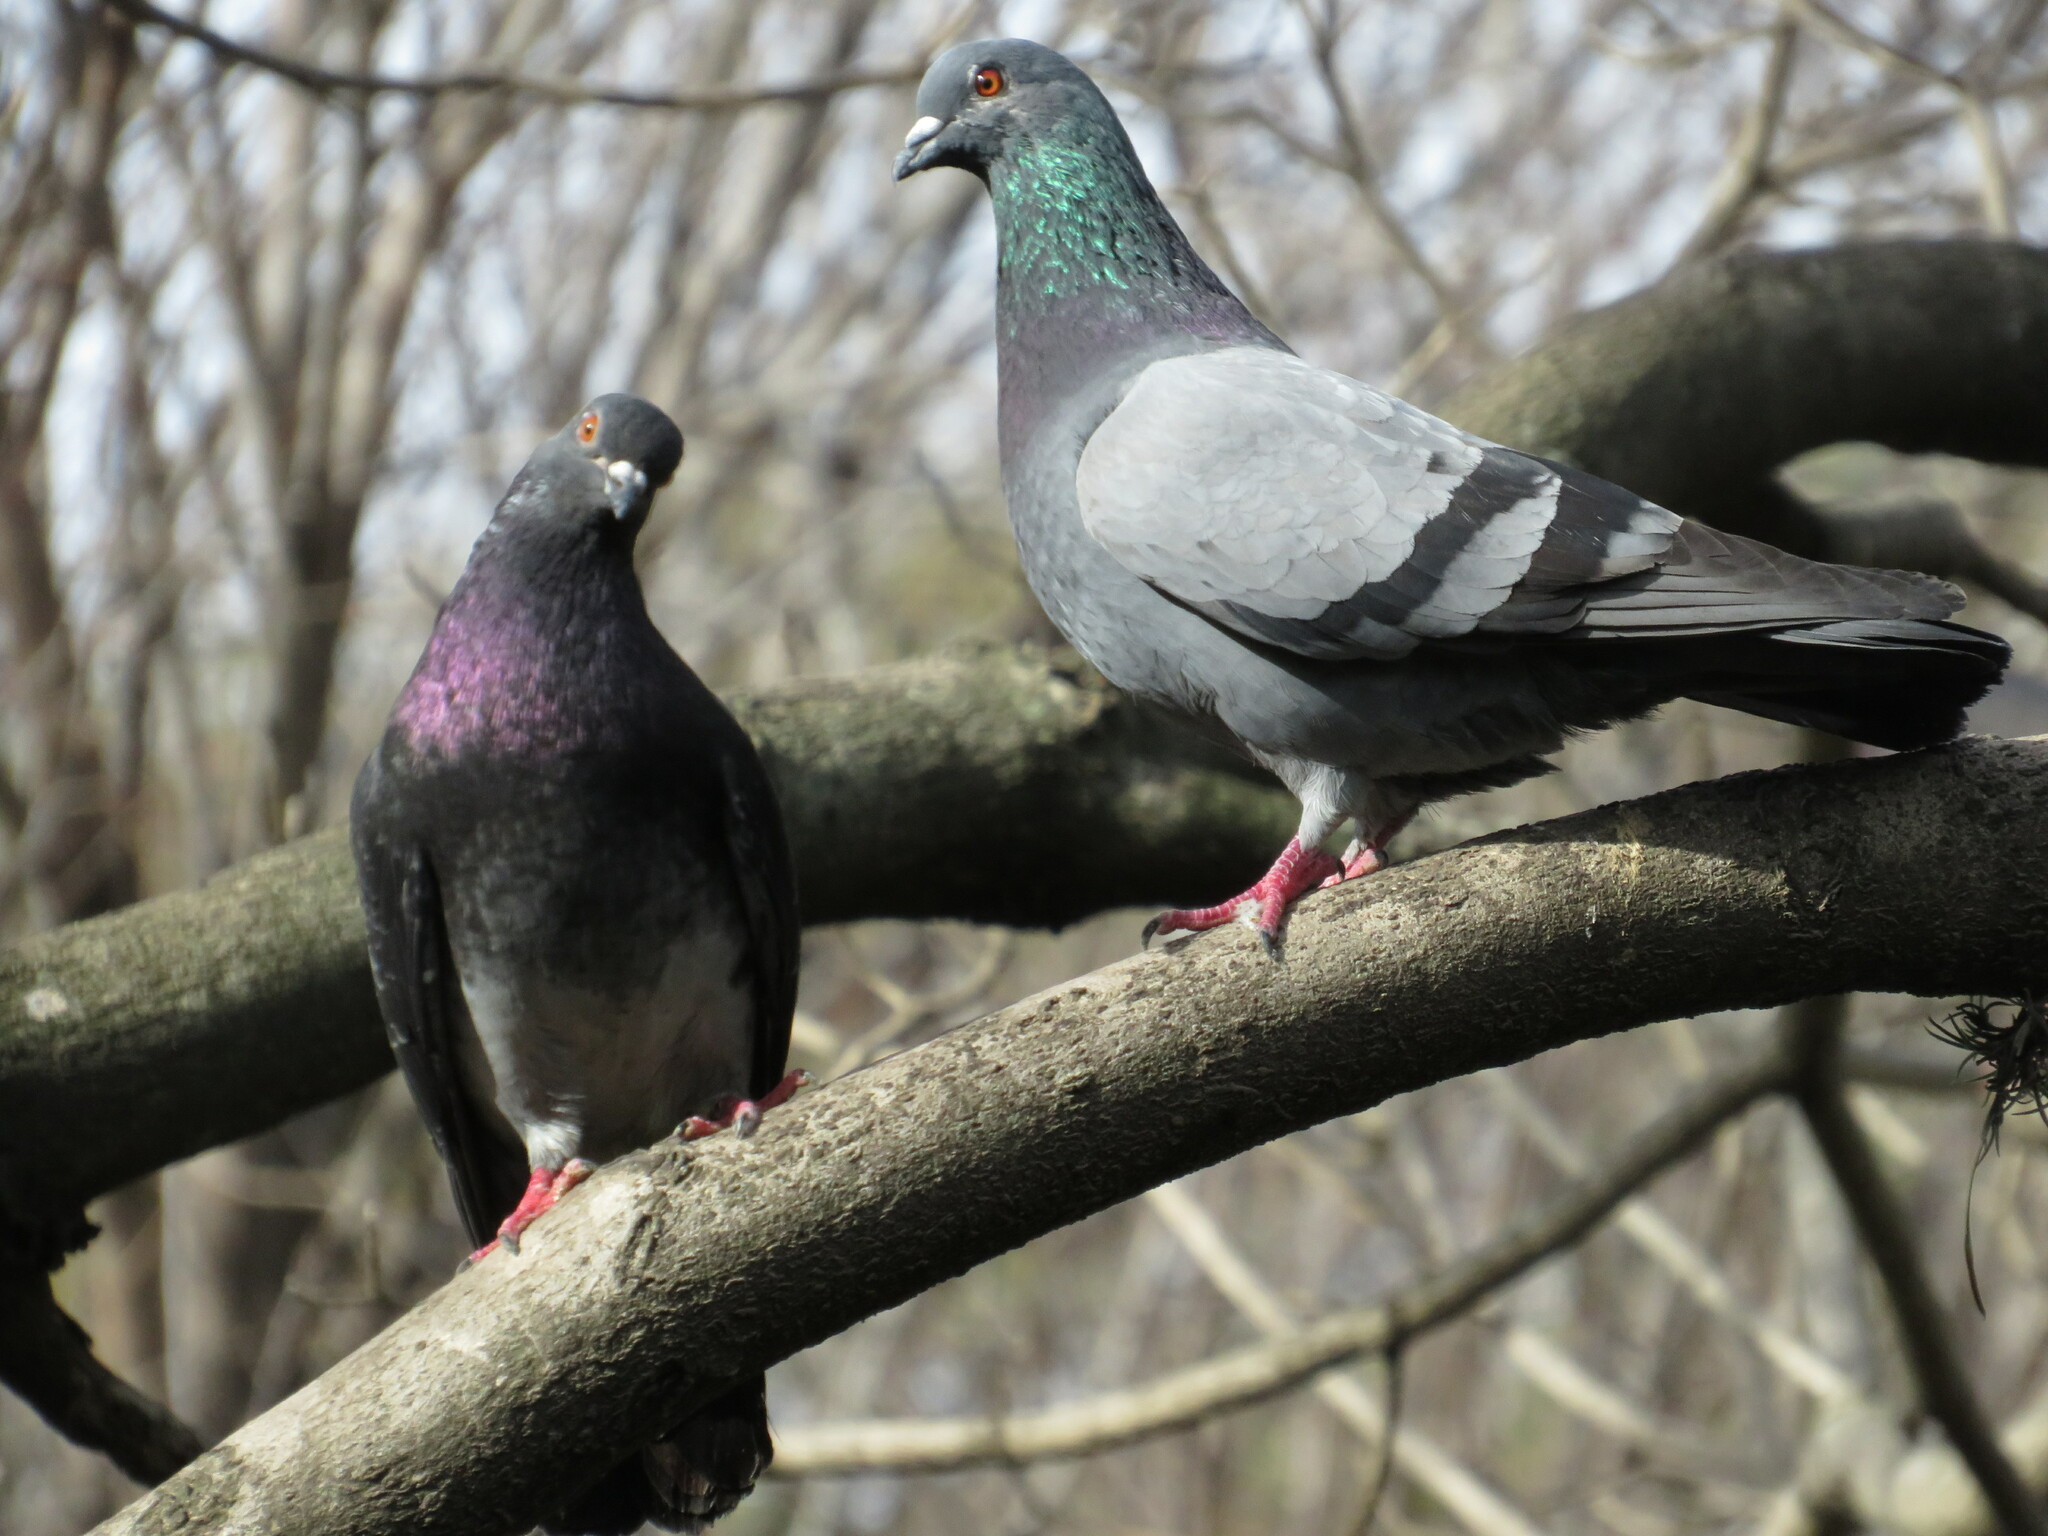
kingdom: Animalia
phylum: Chordata
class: Aves
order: Columbiformes
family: Columbidae
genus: Columba
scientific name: Columba livia
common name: Rock pigeon
